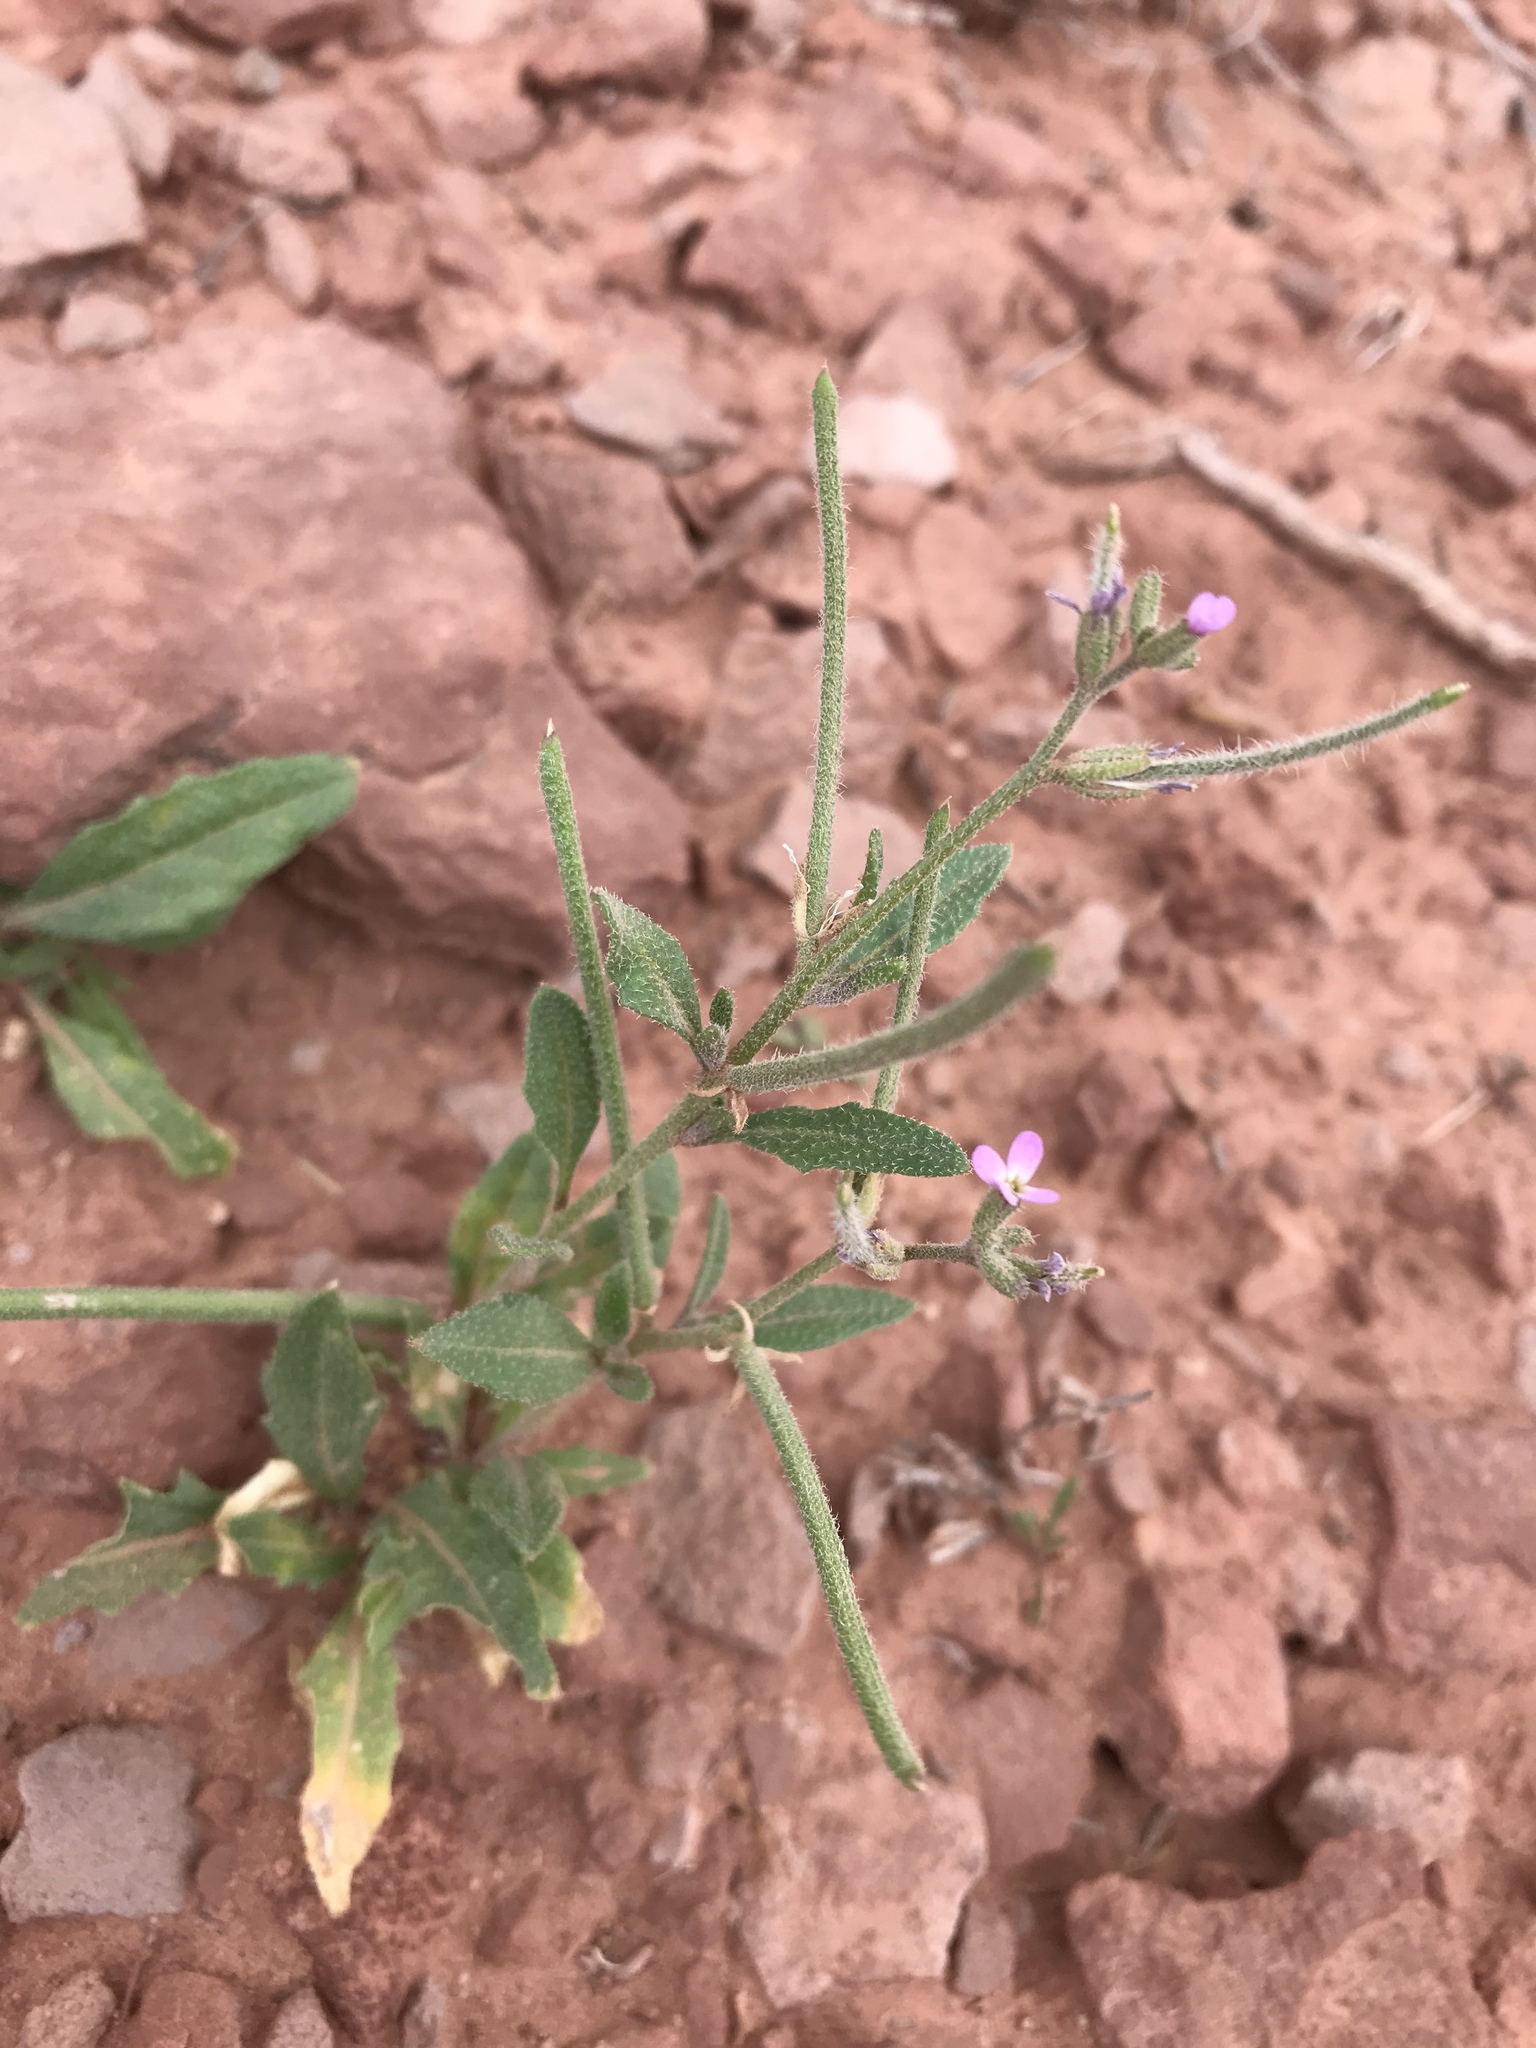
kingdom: Plantae
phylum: Tracheophyta
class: Magnoliopsida
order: Brassicales
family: Brassicaceae
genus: Strigosella
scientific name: Strigosella africana
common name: African mustard
